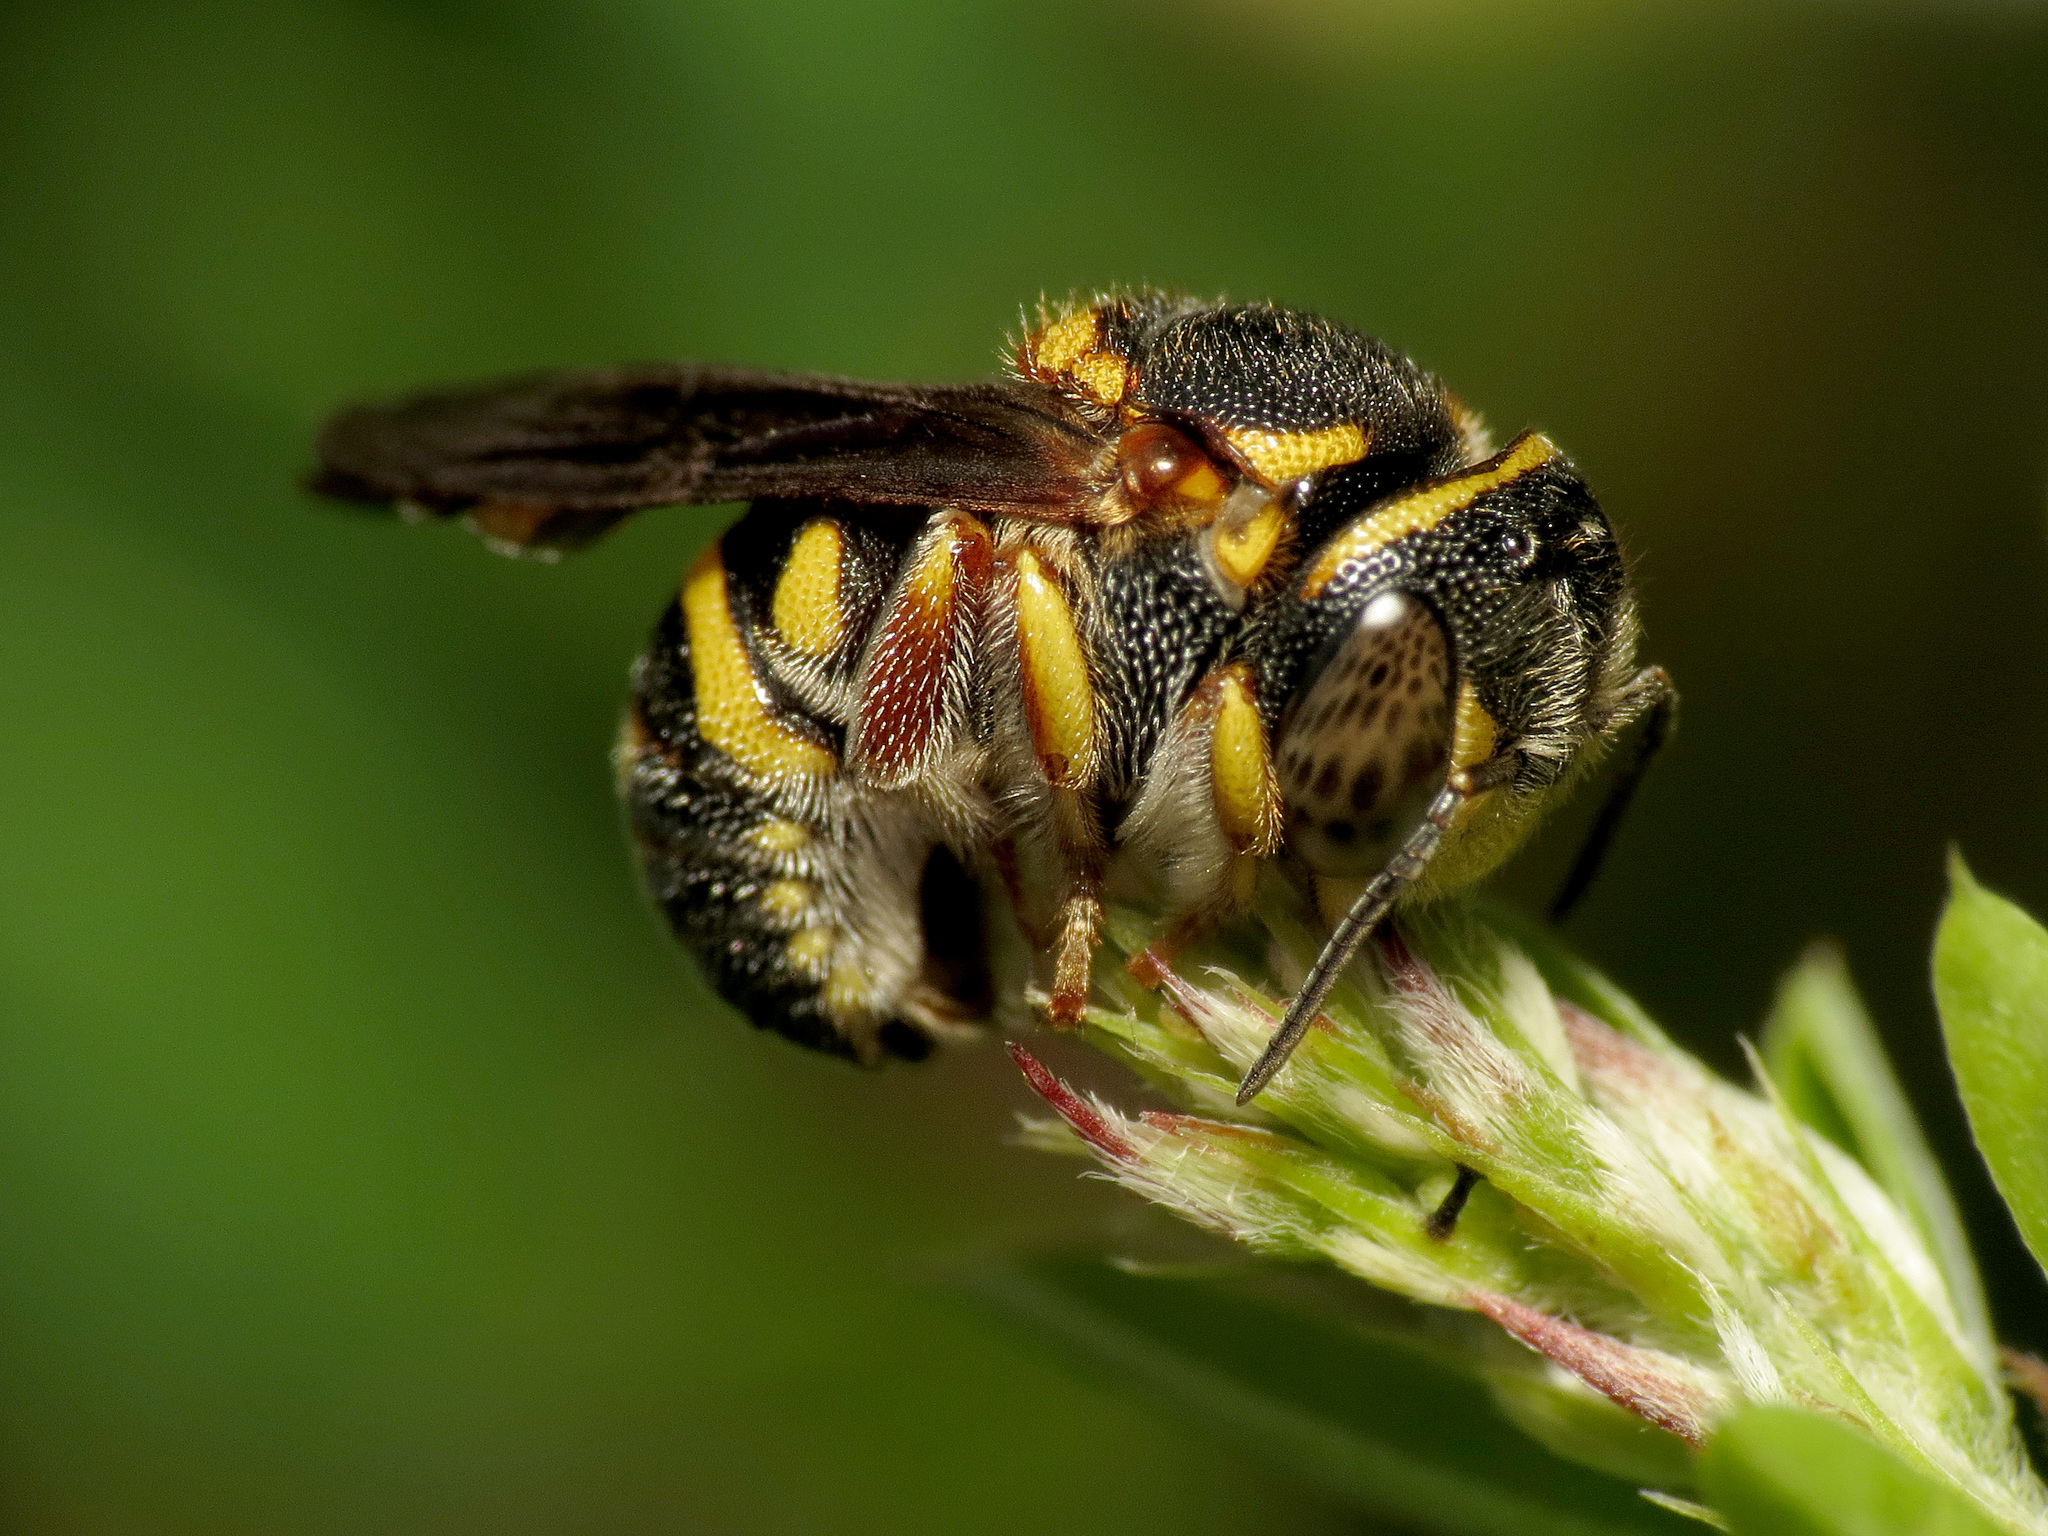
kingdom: Animalia
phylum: Arthropoda
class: Insecta
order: Hymenoptera
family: Megachilidae
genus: Anthidiellum
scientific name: Anthidiellum notatum
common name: Northern rotund-resin bee
